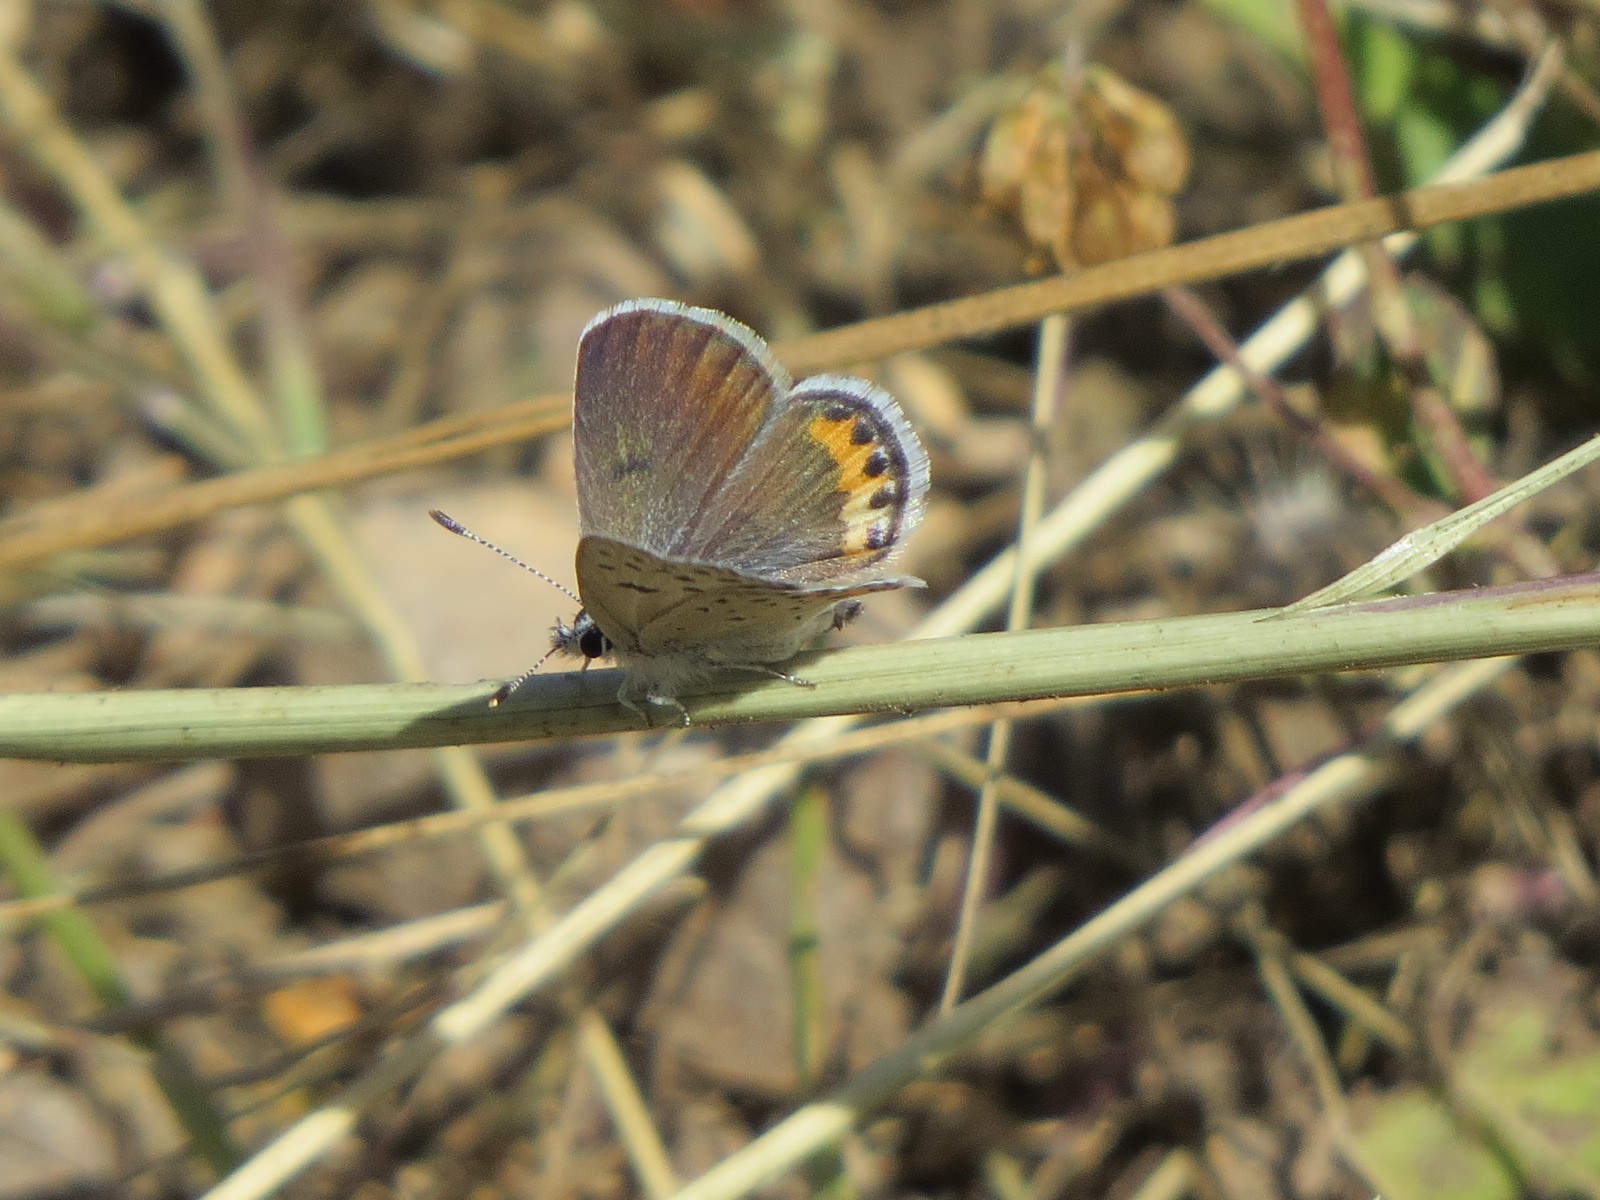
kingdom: Animalia
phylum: Arthropoda
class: Insecta
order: Lepidoptera
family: Lycaenidae
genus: Icaricia
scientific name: Icaricia acmon
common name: Acmon blue
